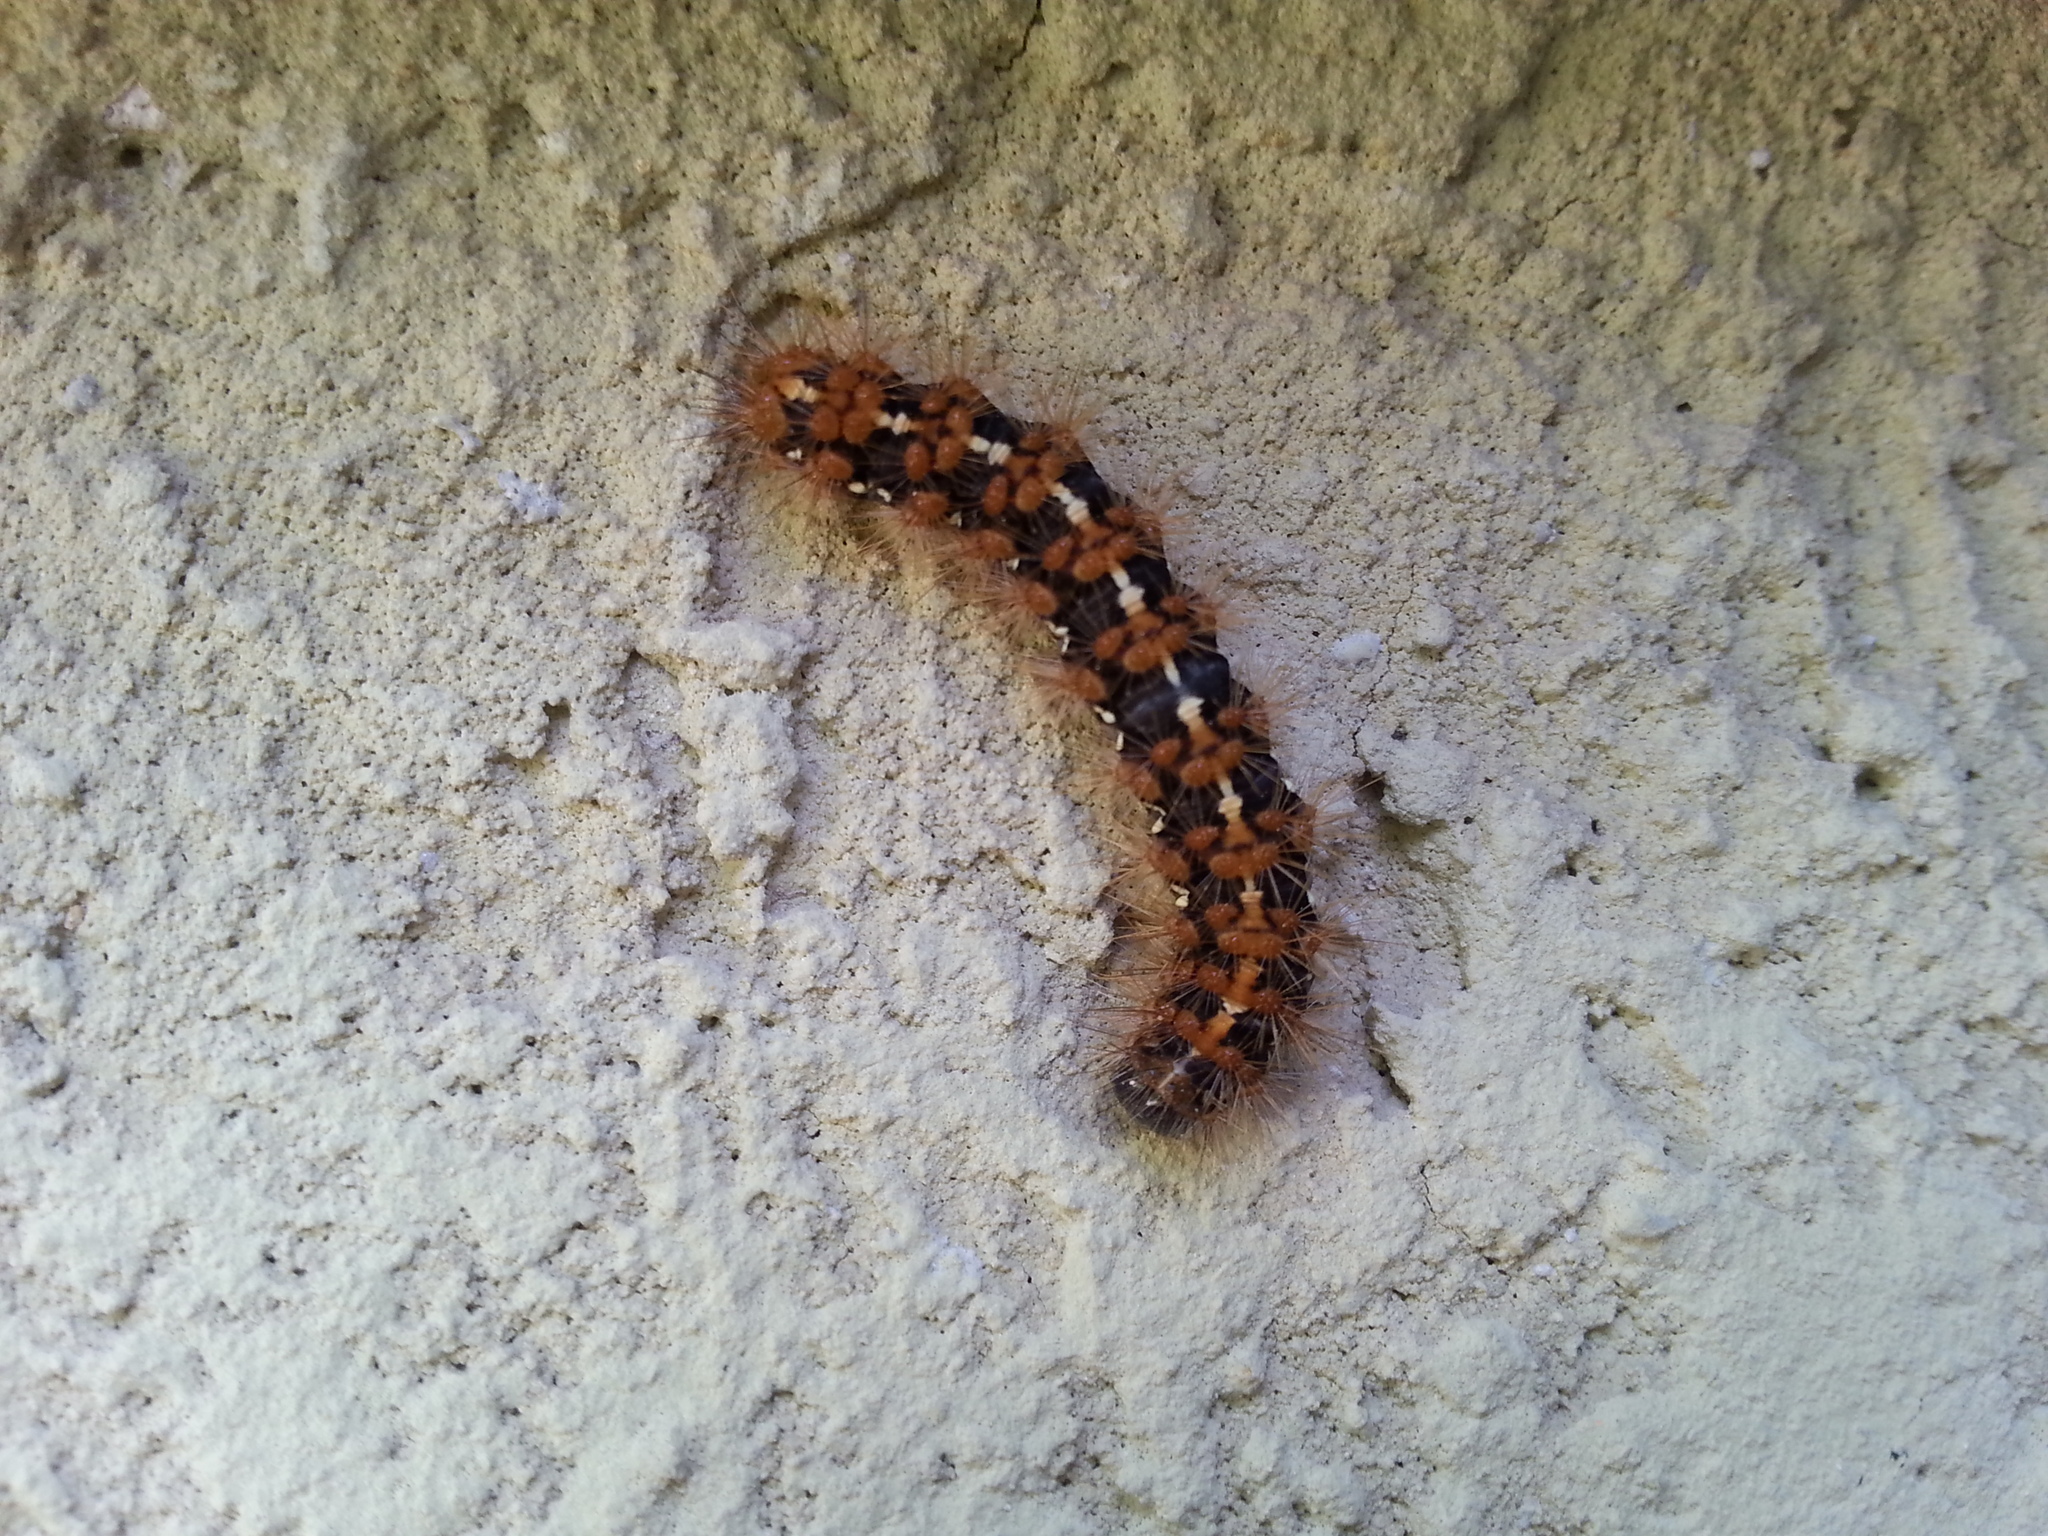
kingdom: Animalia
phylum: Arthropoda
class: Insecta
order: Lepidoptera
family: Erebidae
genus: Euplagia
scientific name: Euplagia quadripunctaria
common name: Jersey tiger
